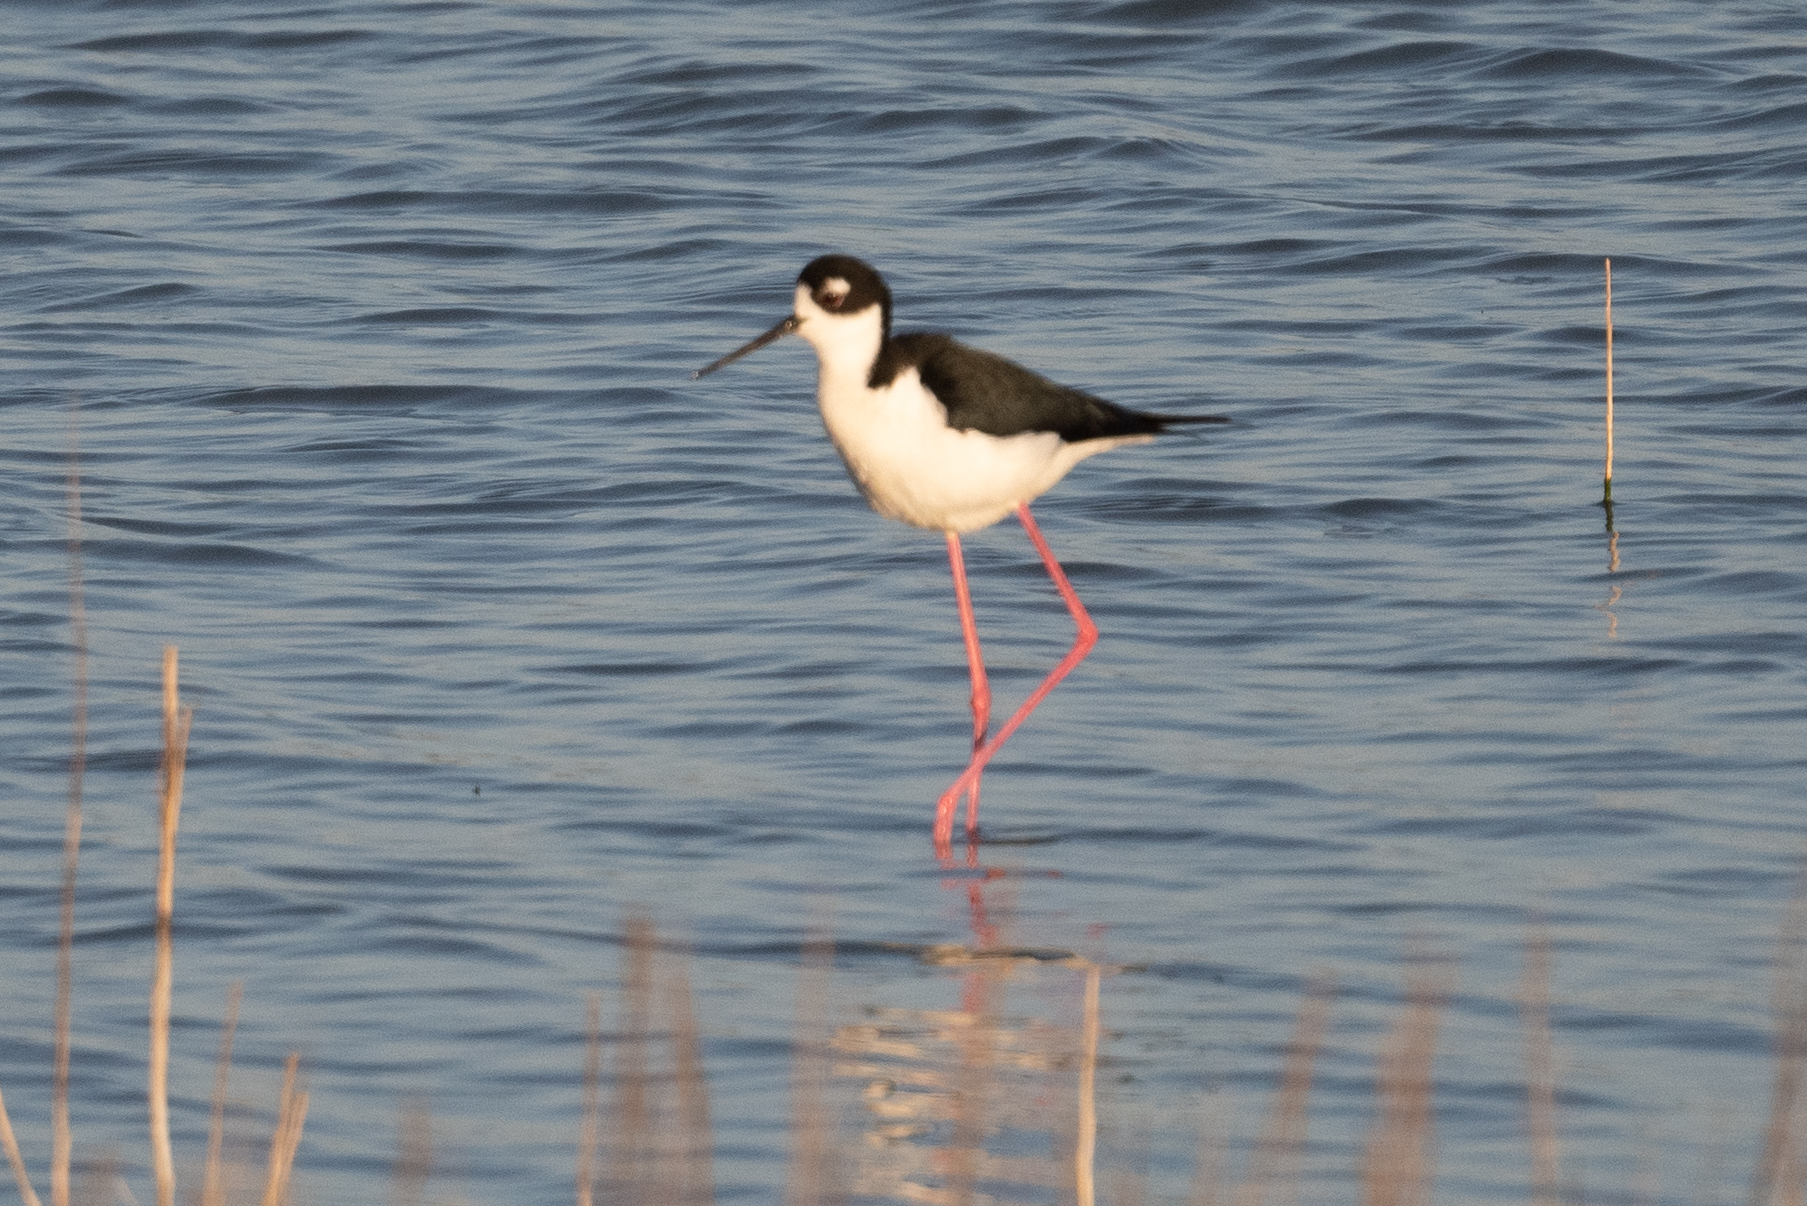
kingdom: Animalia
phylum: Chordata
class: Aves
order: Charadriiformes
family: Recurvirostridae
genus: Himantopus
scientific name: Himantopus mexicanus
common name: Black-necked stilt
